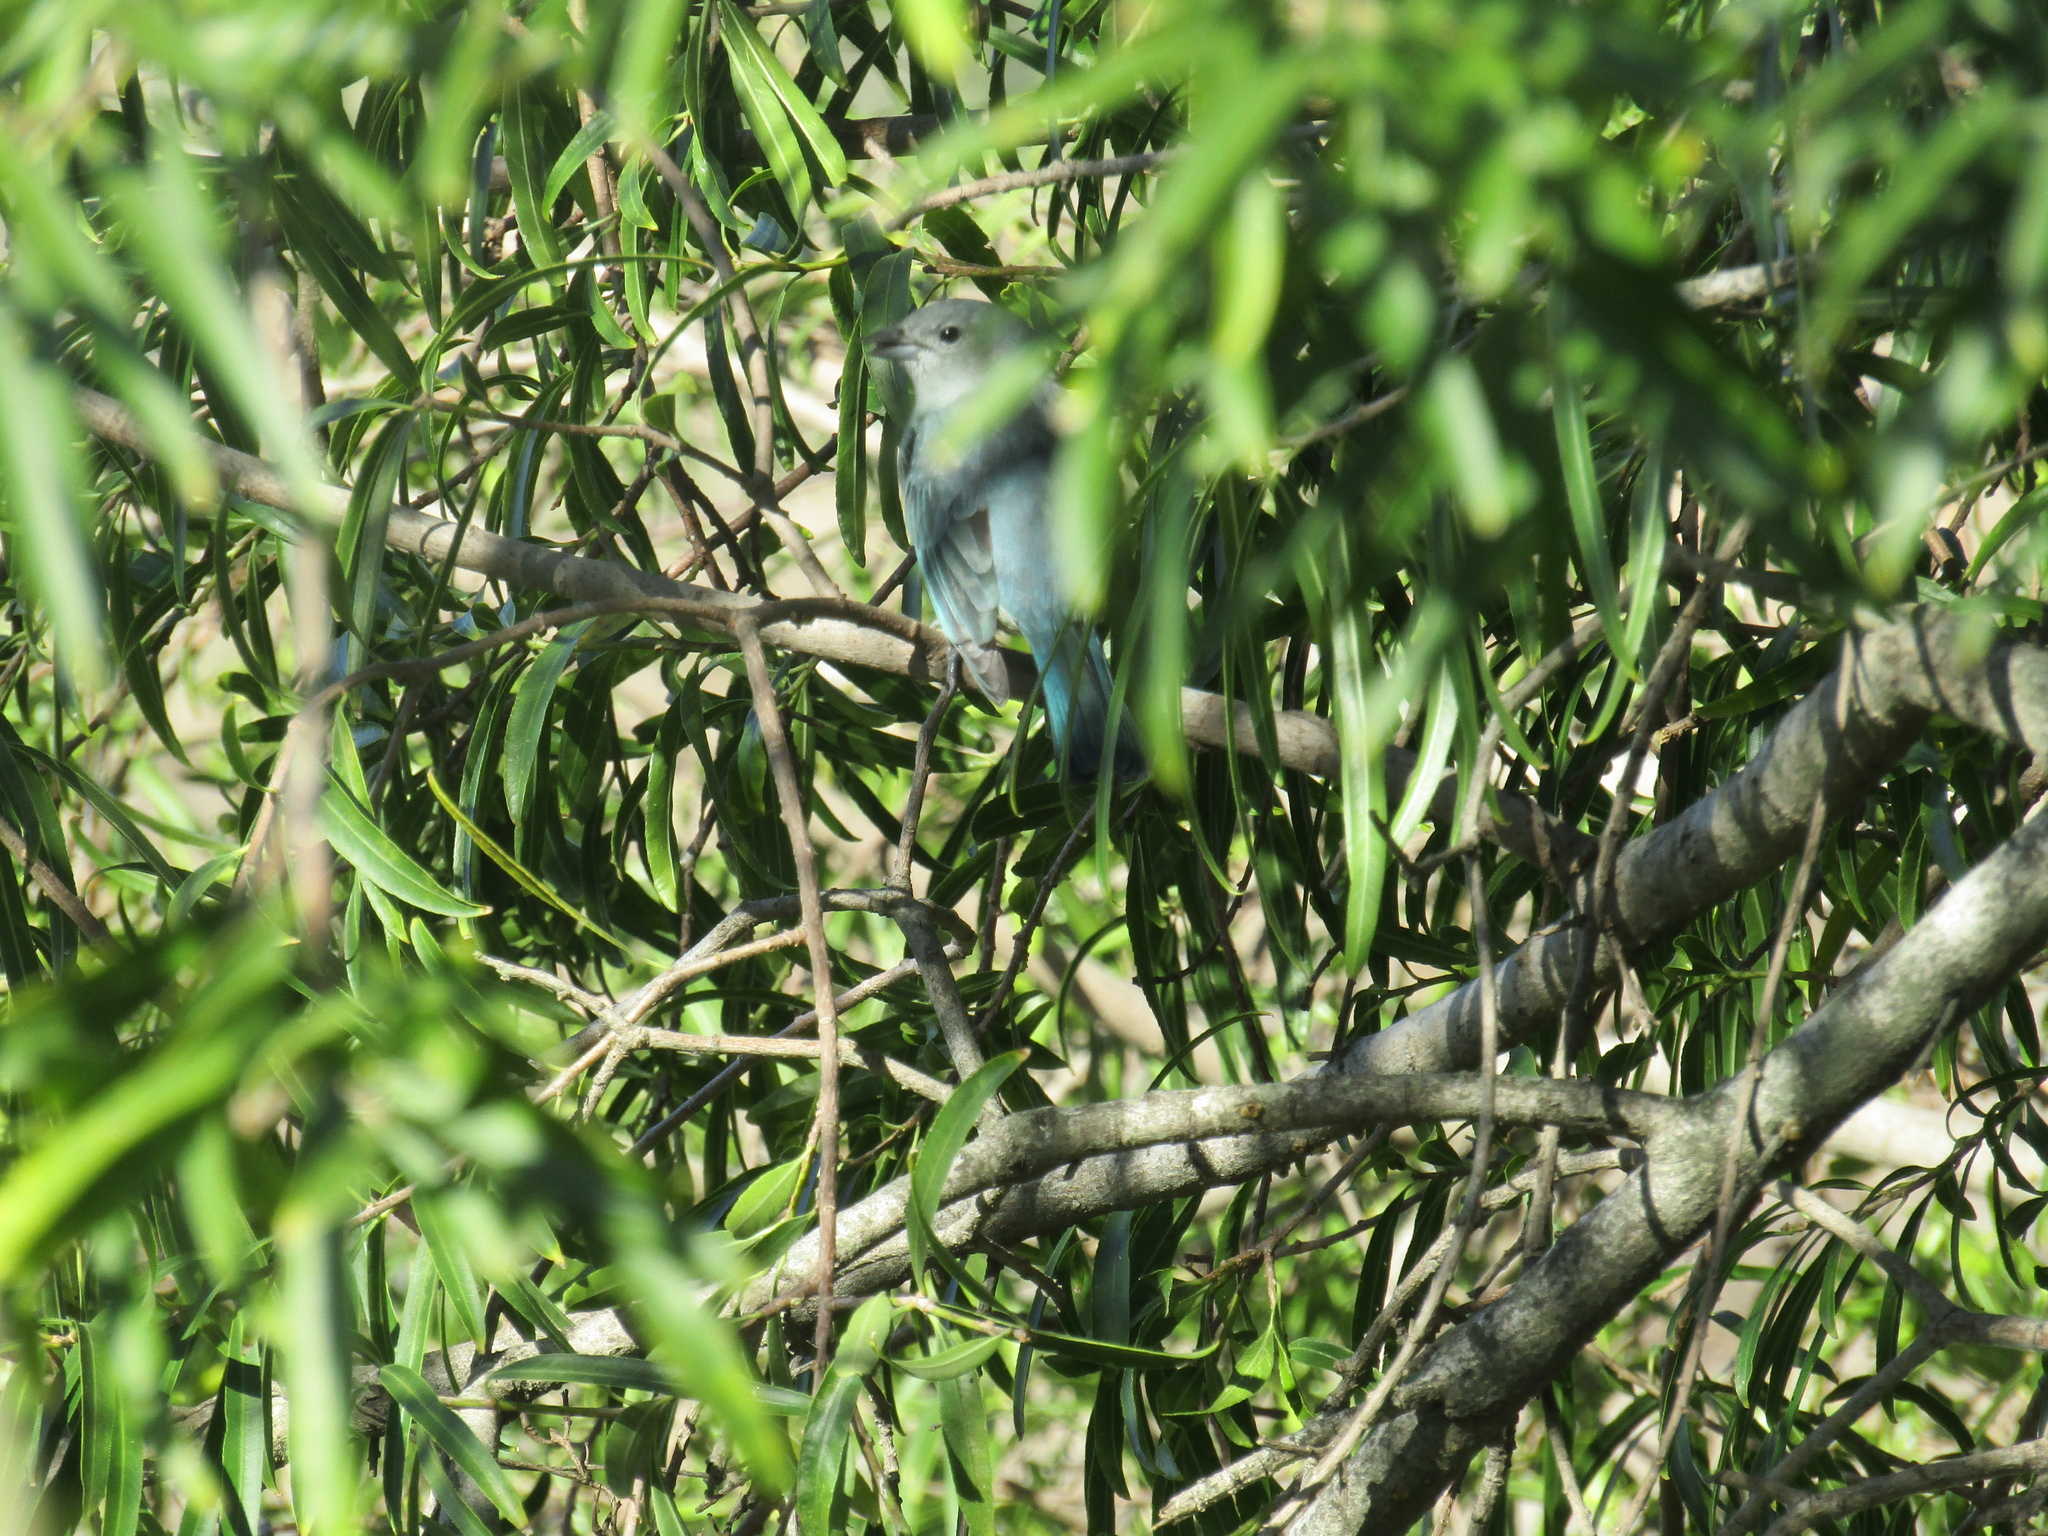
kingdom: Animalia
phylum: Chordata
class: Aves
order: Passeriformes
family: Thraupidae
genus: Thraupis
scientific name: Thraupis sayaca
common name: Sayaca tanager
